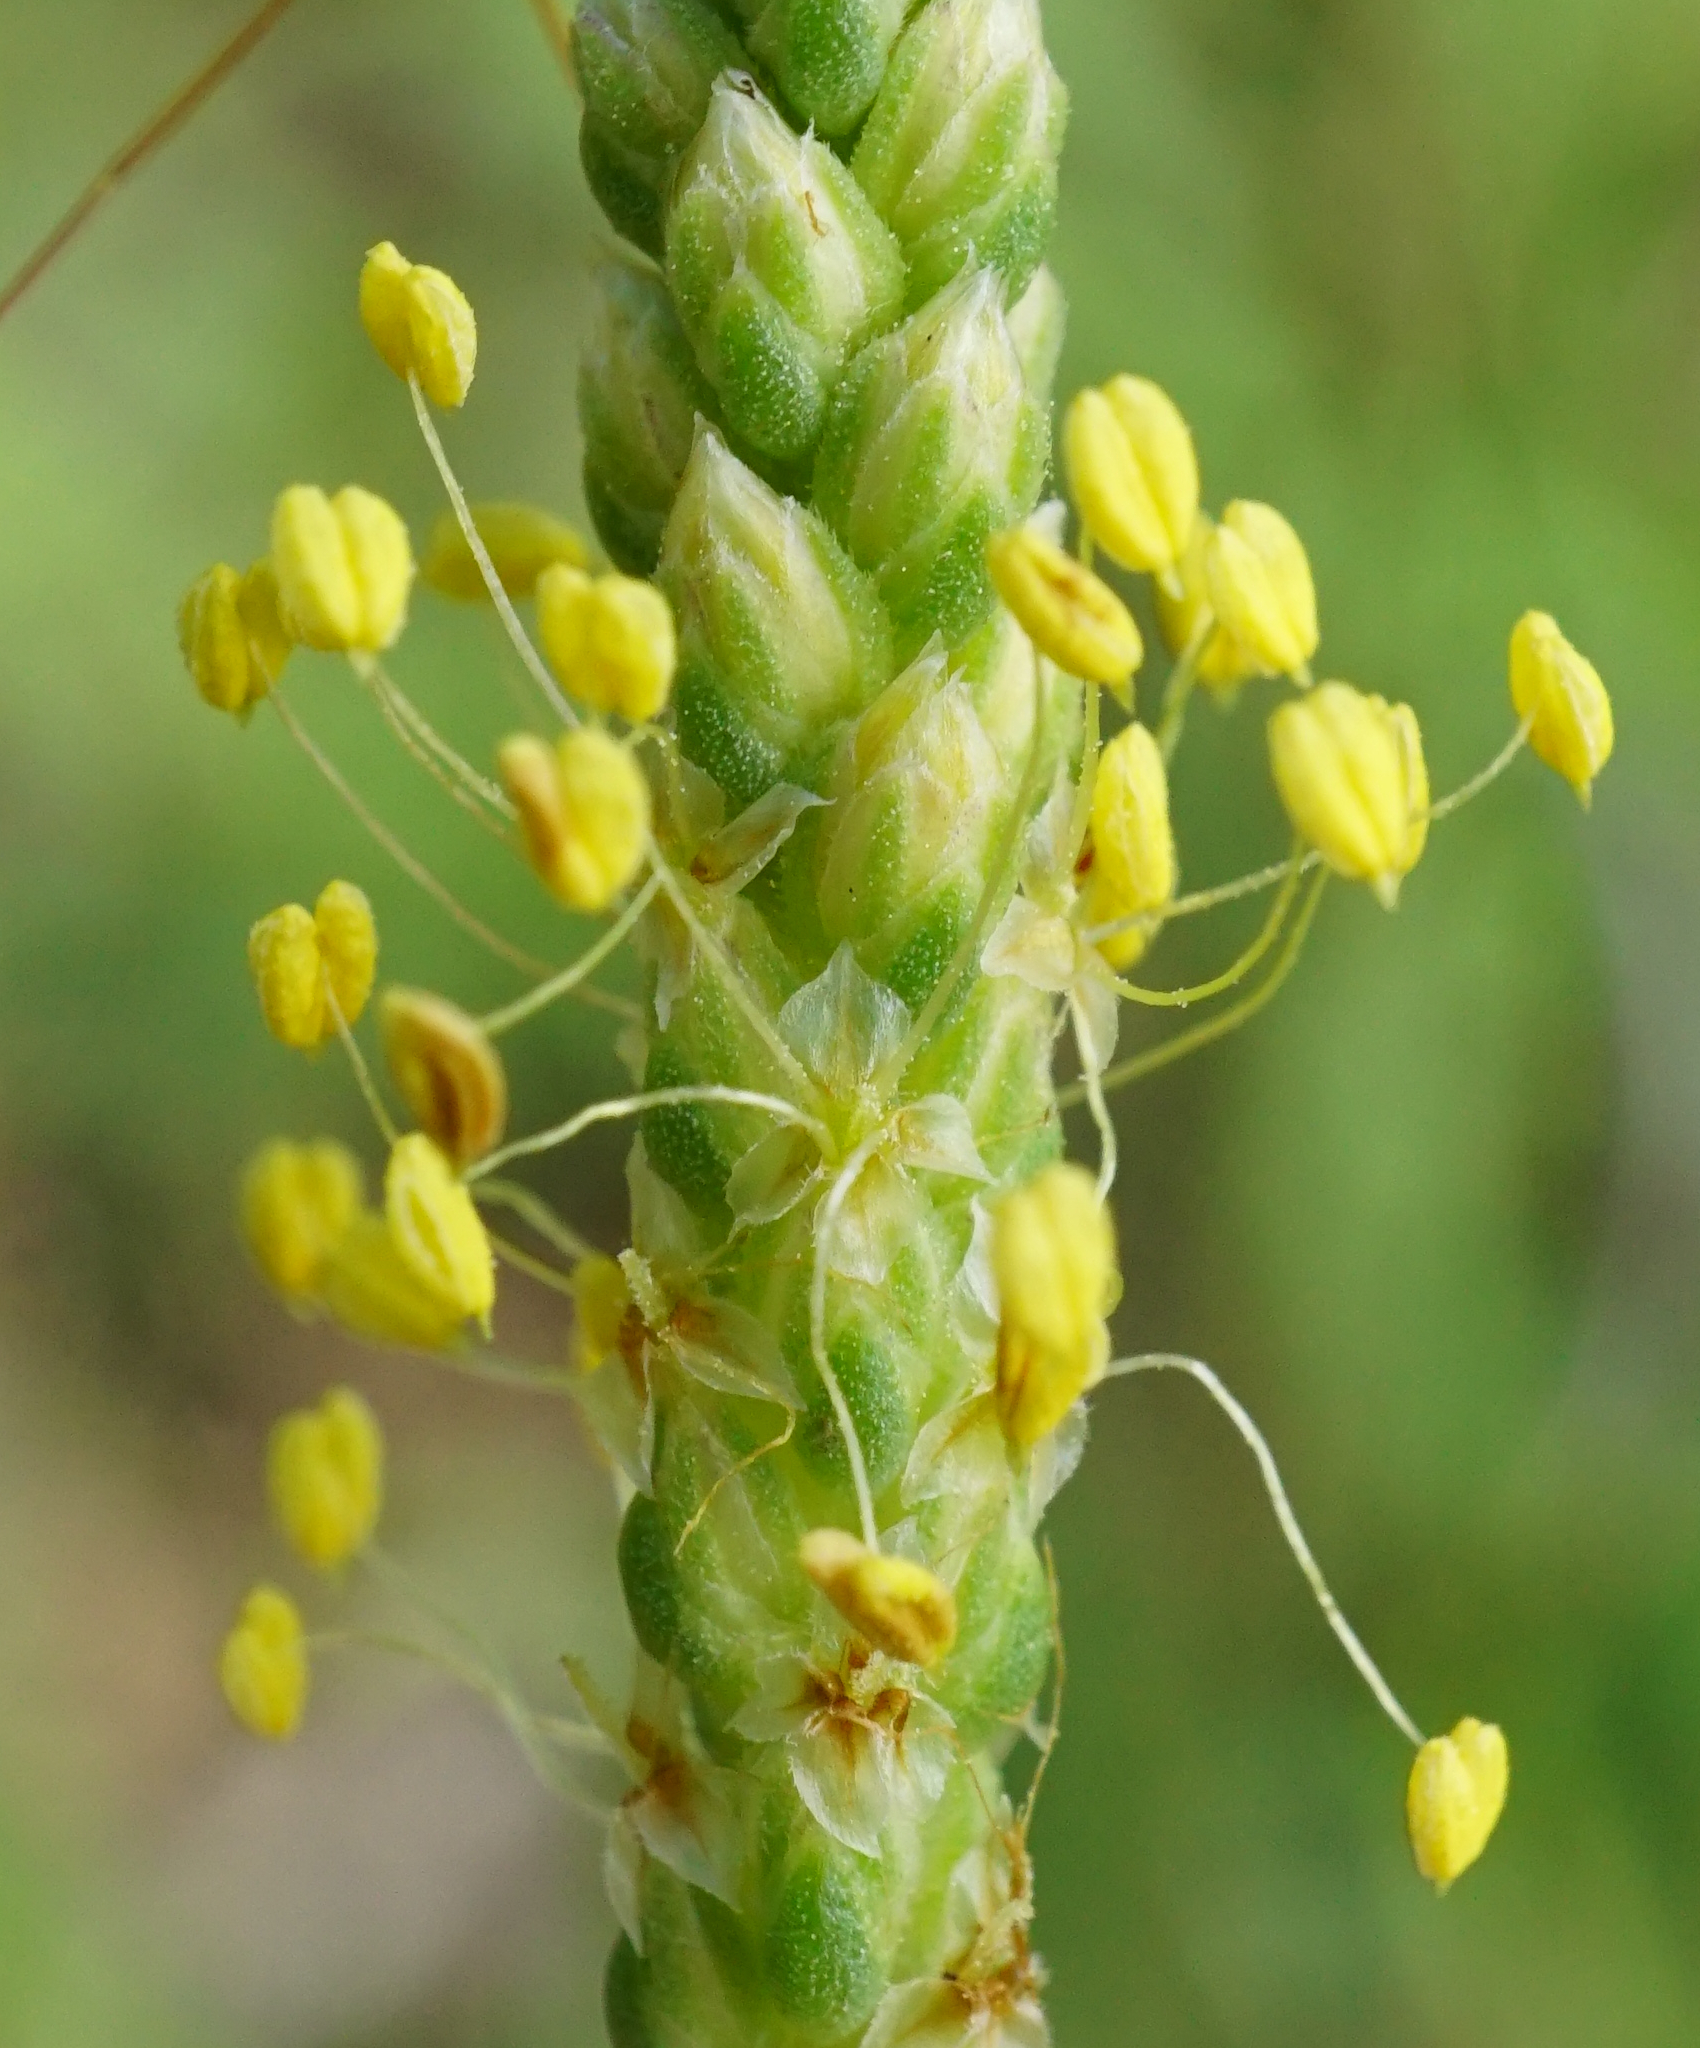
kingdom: Plantae
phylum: Tracheophyta
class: Magnoliopsida
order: Lamiales
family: Plantaginaceae
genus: Plantago
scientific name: Plantago maritima
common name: Sea plantain
